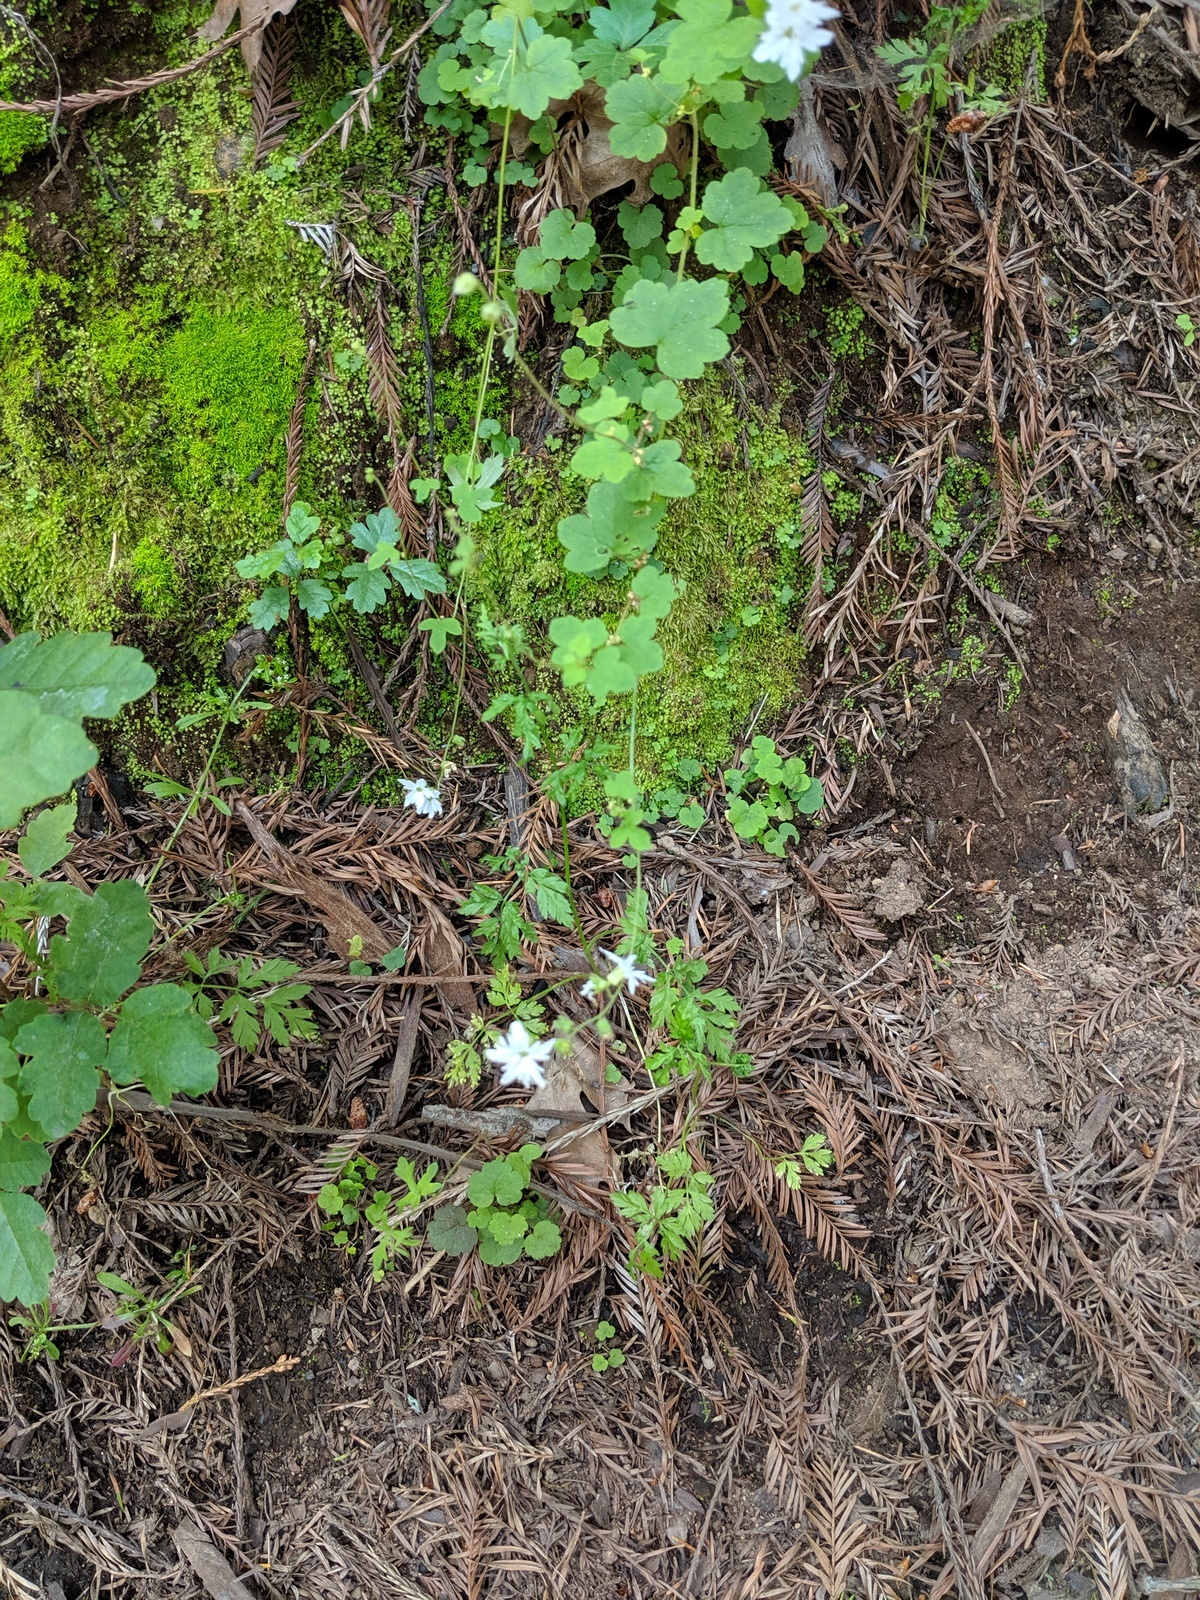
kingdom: Plantae
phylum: Tracheophyta
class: Magnoliopsida
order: Saxifragales
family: Saxifragaceae
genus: Lithophragma
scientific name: Lithophragma heterophyllum
